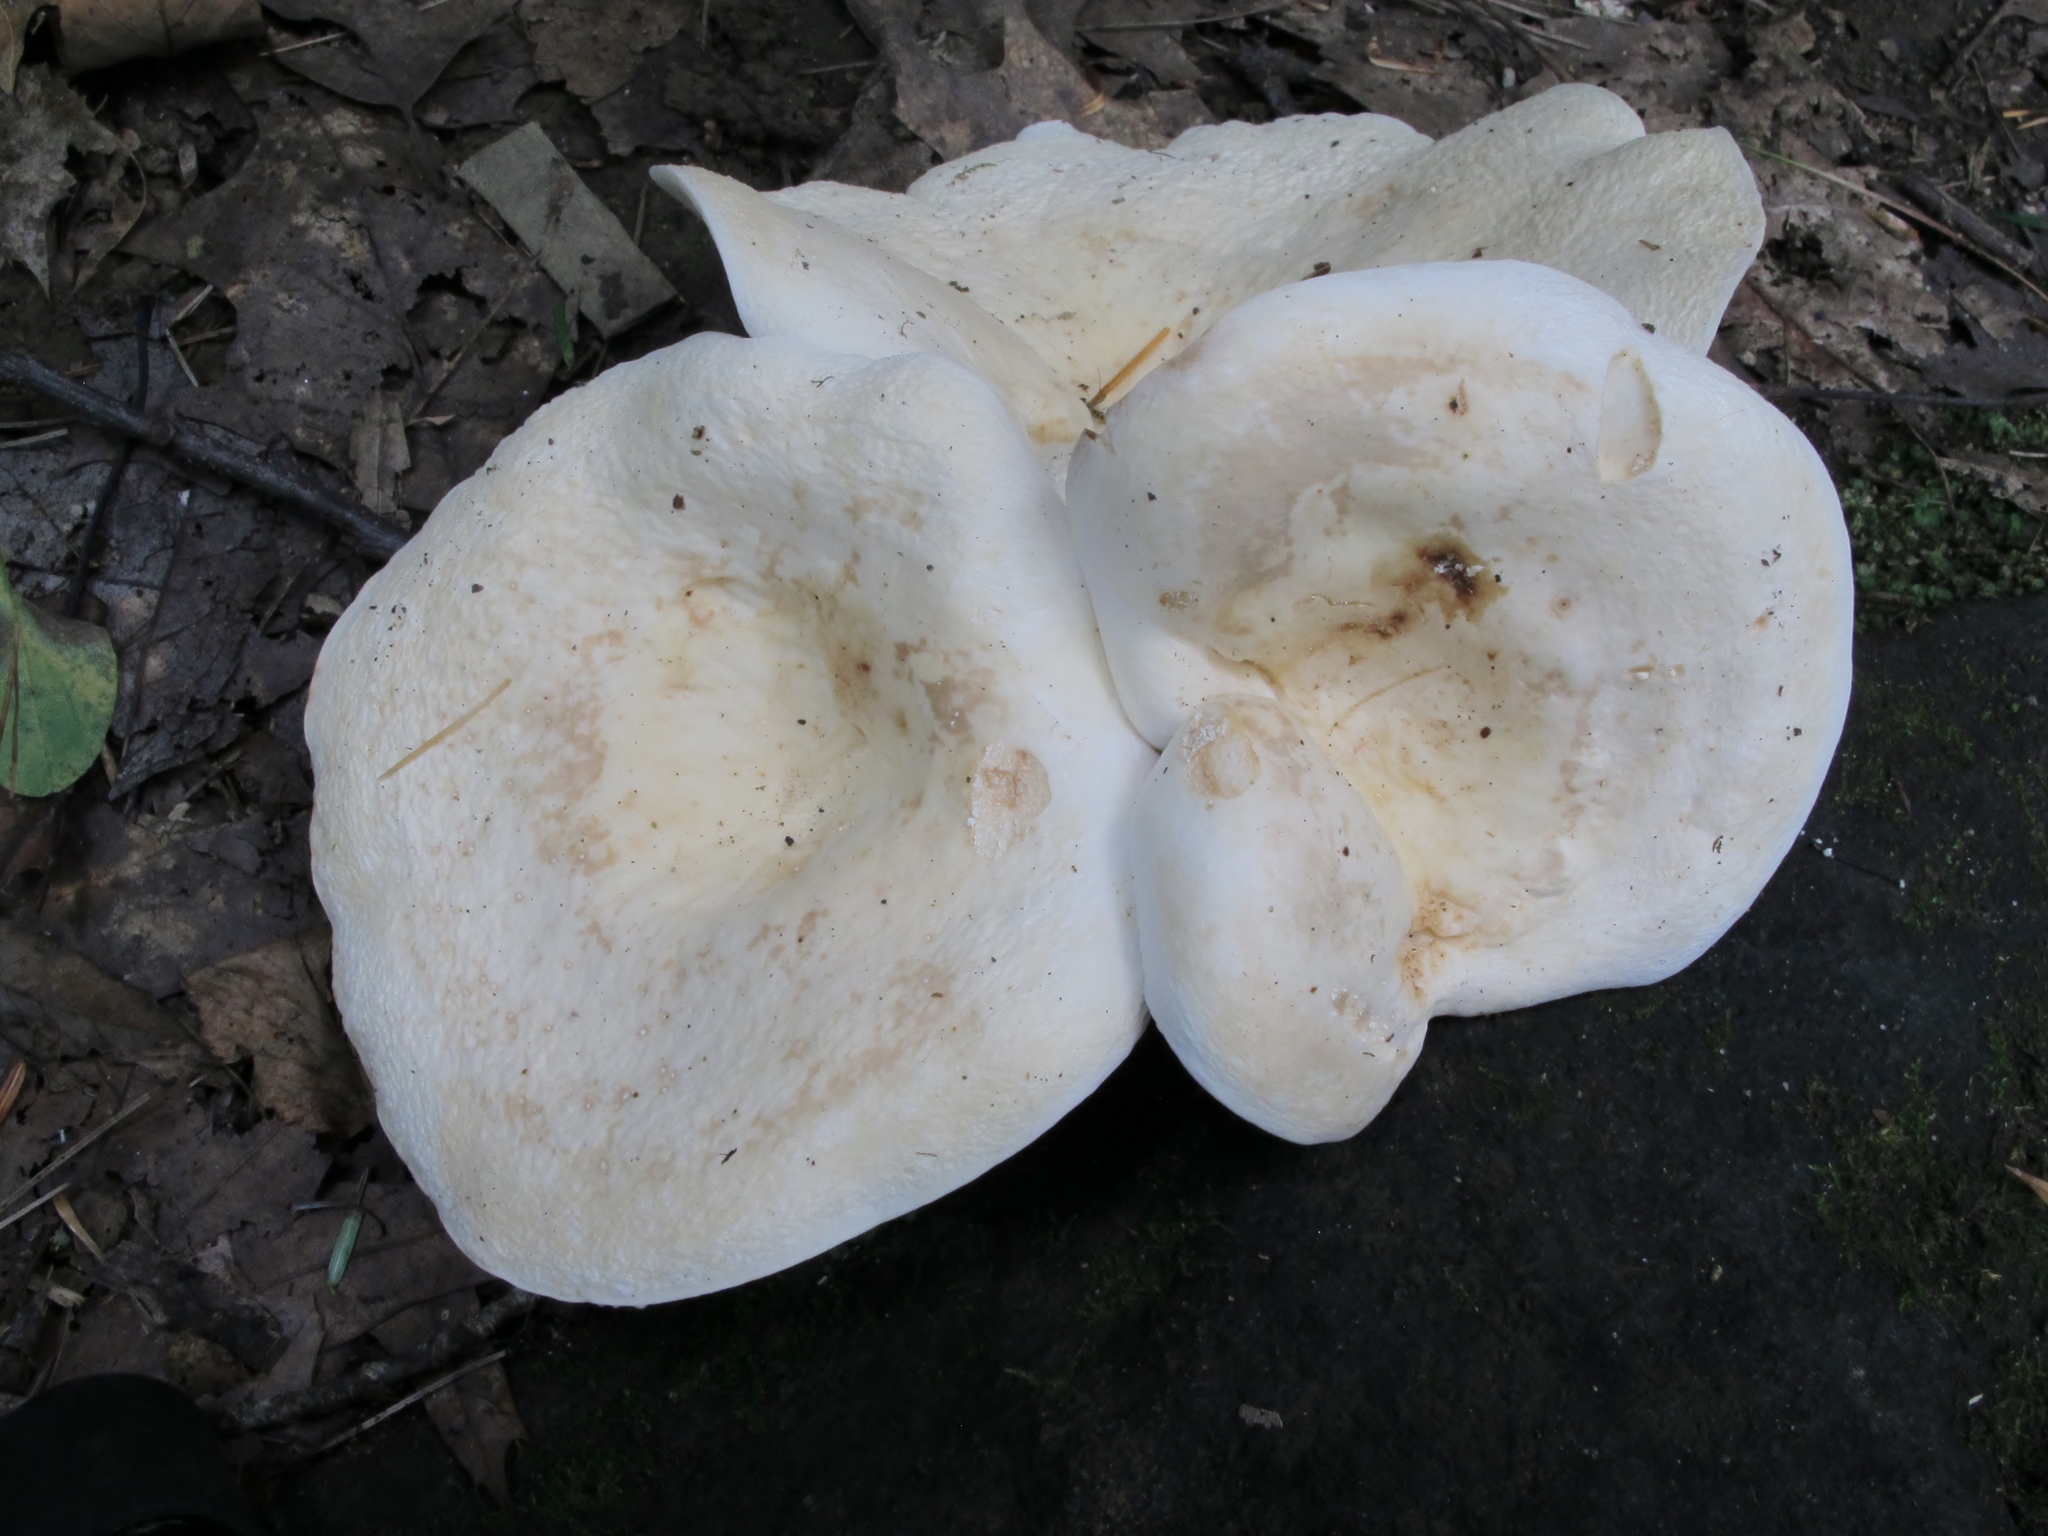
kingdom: Fungi
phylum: Basidiomycota
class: Agaricomycetes
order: Russulales
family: Russulaceae
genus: Lactifluus
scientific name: Lactifluus piperatus
